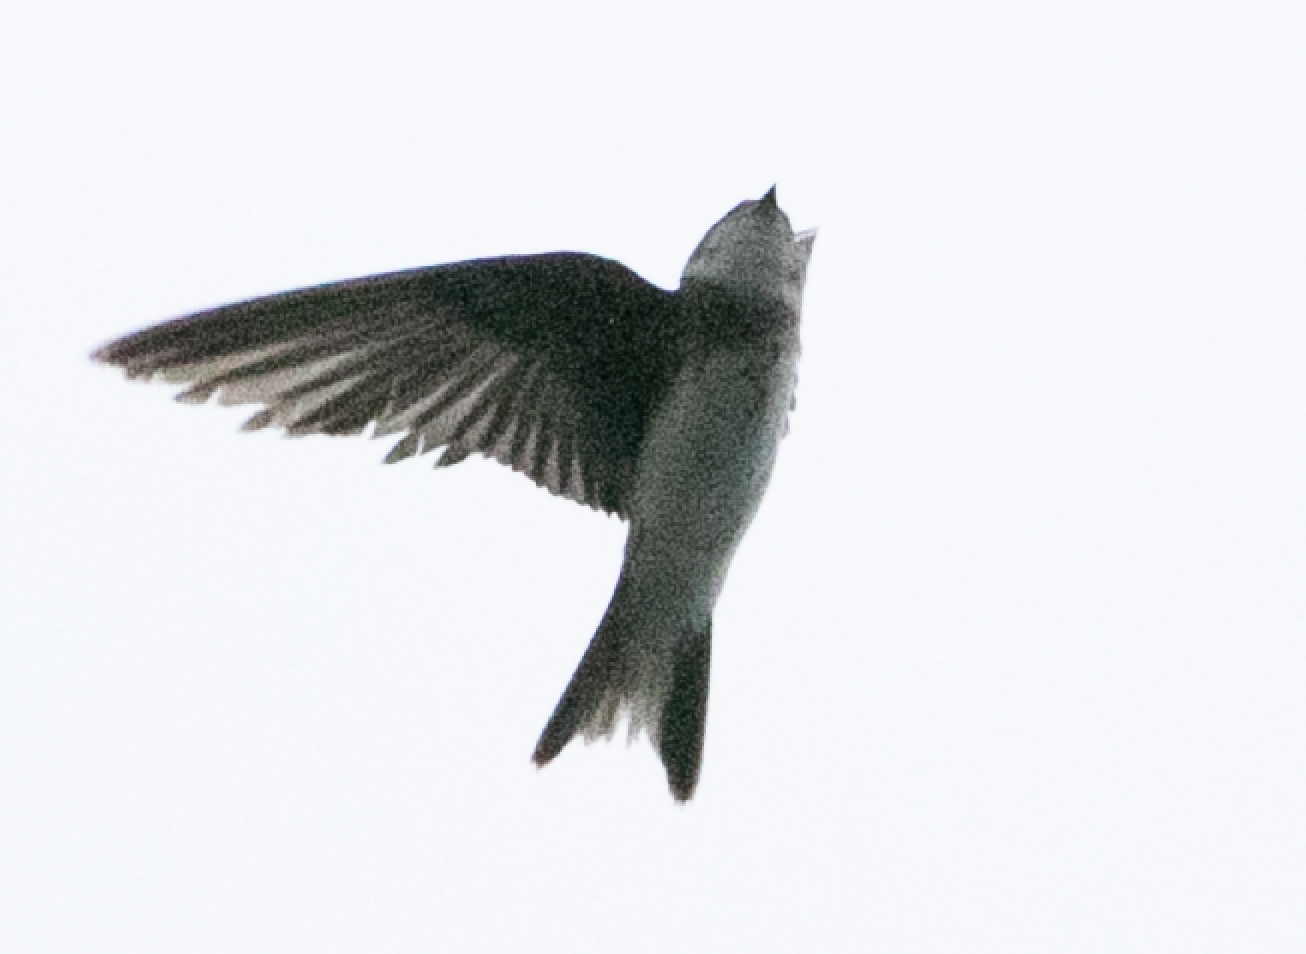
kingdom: Animalia
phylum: Chordata
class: Aves
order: Passeriformes
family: Hirundinidae
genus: Riparia
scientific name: Riparia riparia
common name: Sand martin
